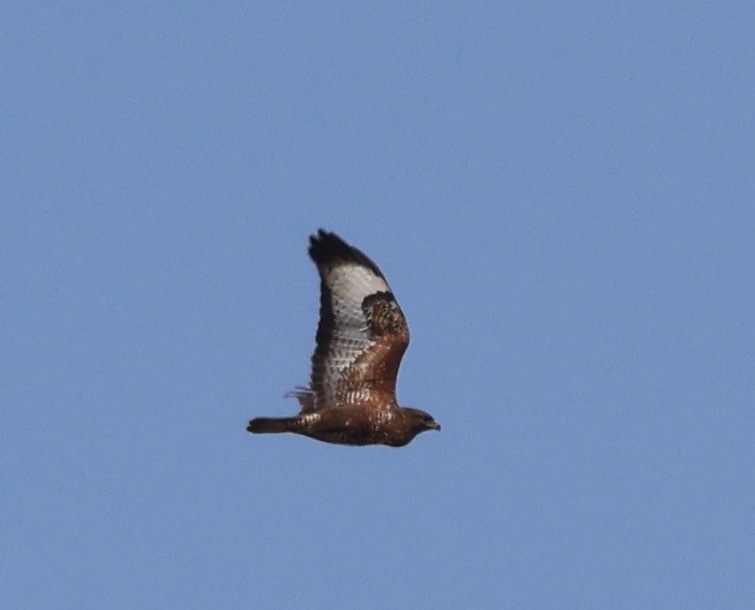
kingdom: Animalia
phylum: Chordata
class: Aves
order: Accipitriformes
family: Accipitridae
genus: Buteo
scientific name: Buteo buteo
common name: Common buzzard
